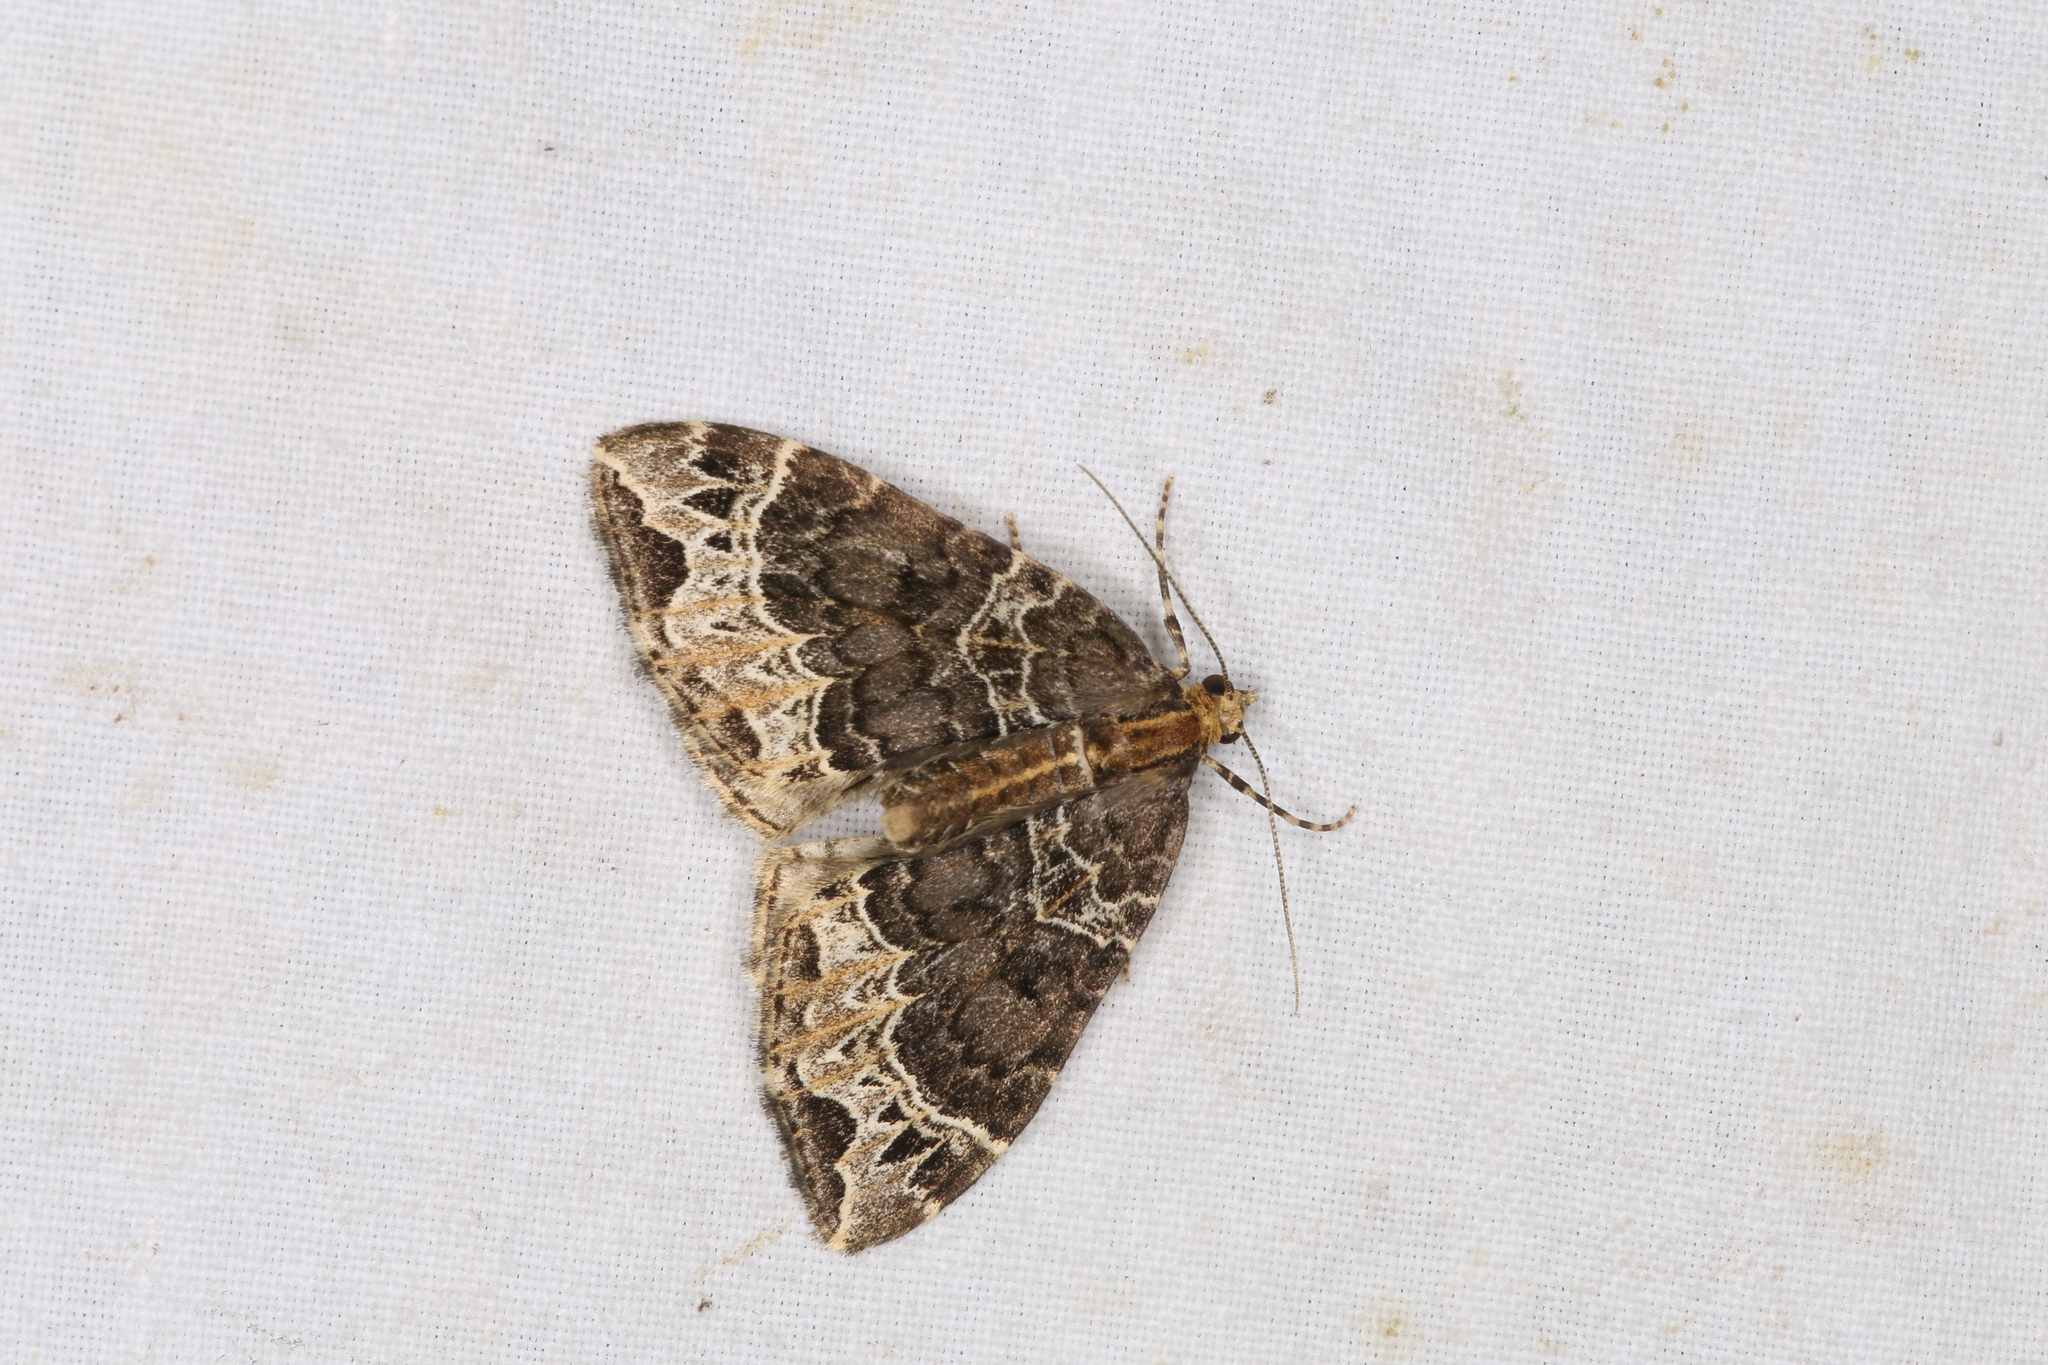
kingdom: Animalia
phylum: Arthropoda
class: Insecta
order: Lepidoptera
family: Geometridae
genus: Ecliptopera
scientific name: Ecliptopera silaceata
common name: Small phoenix
